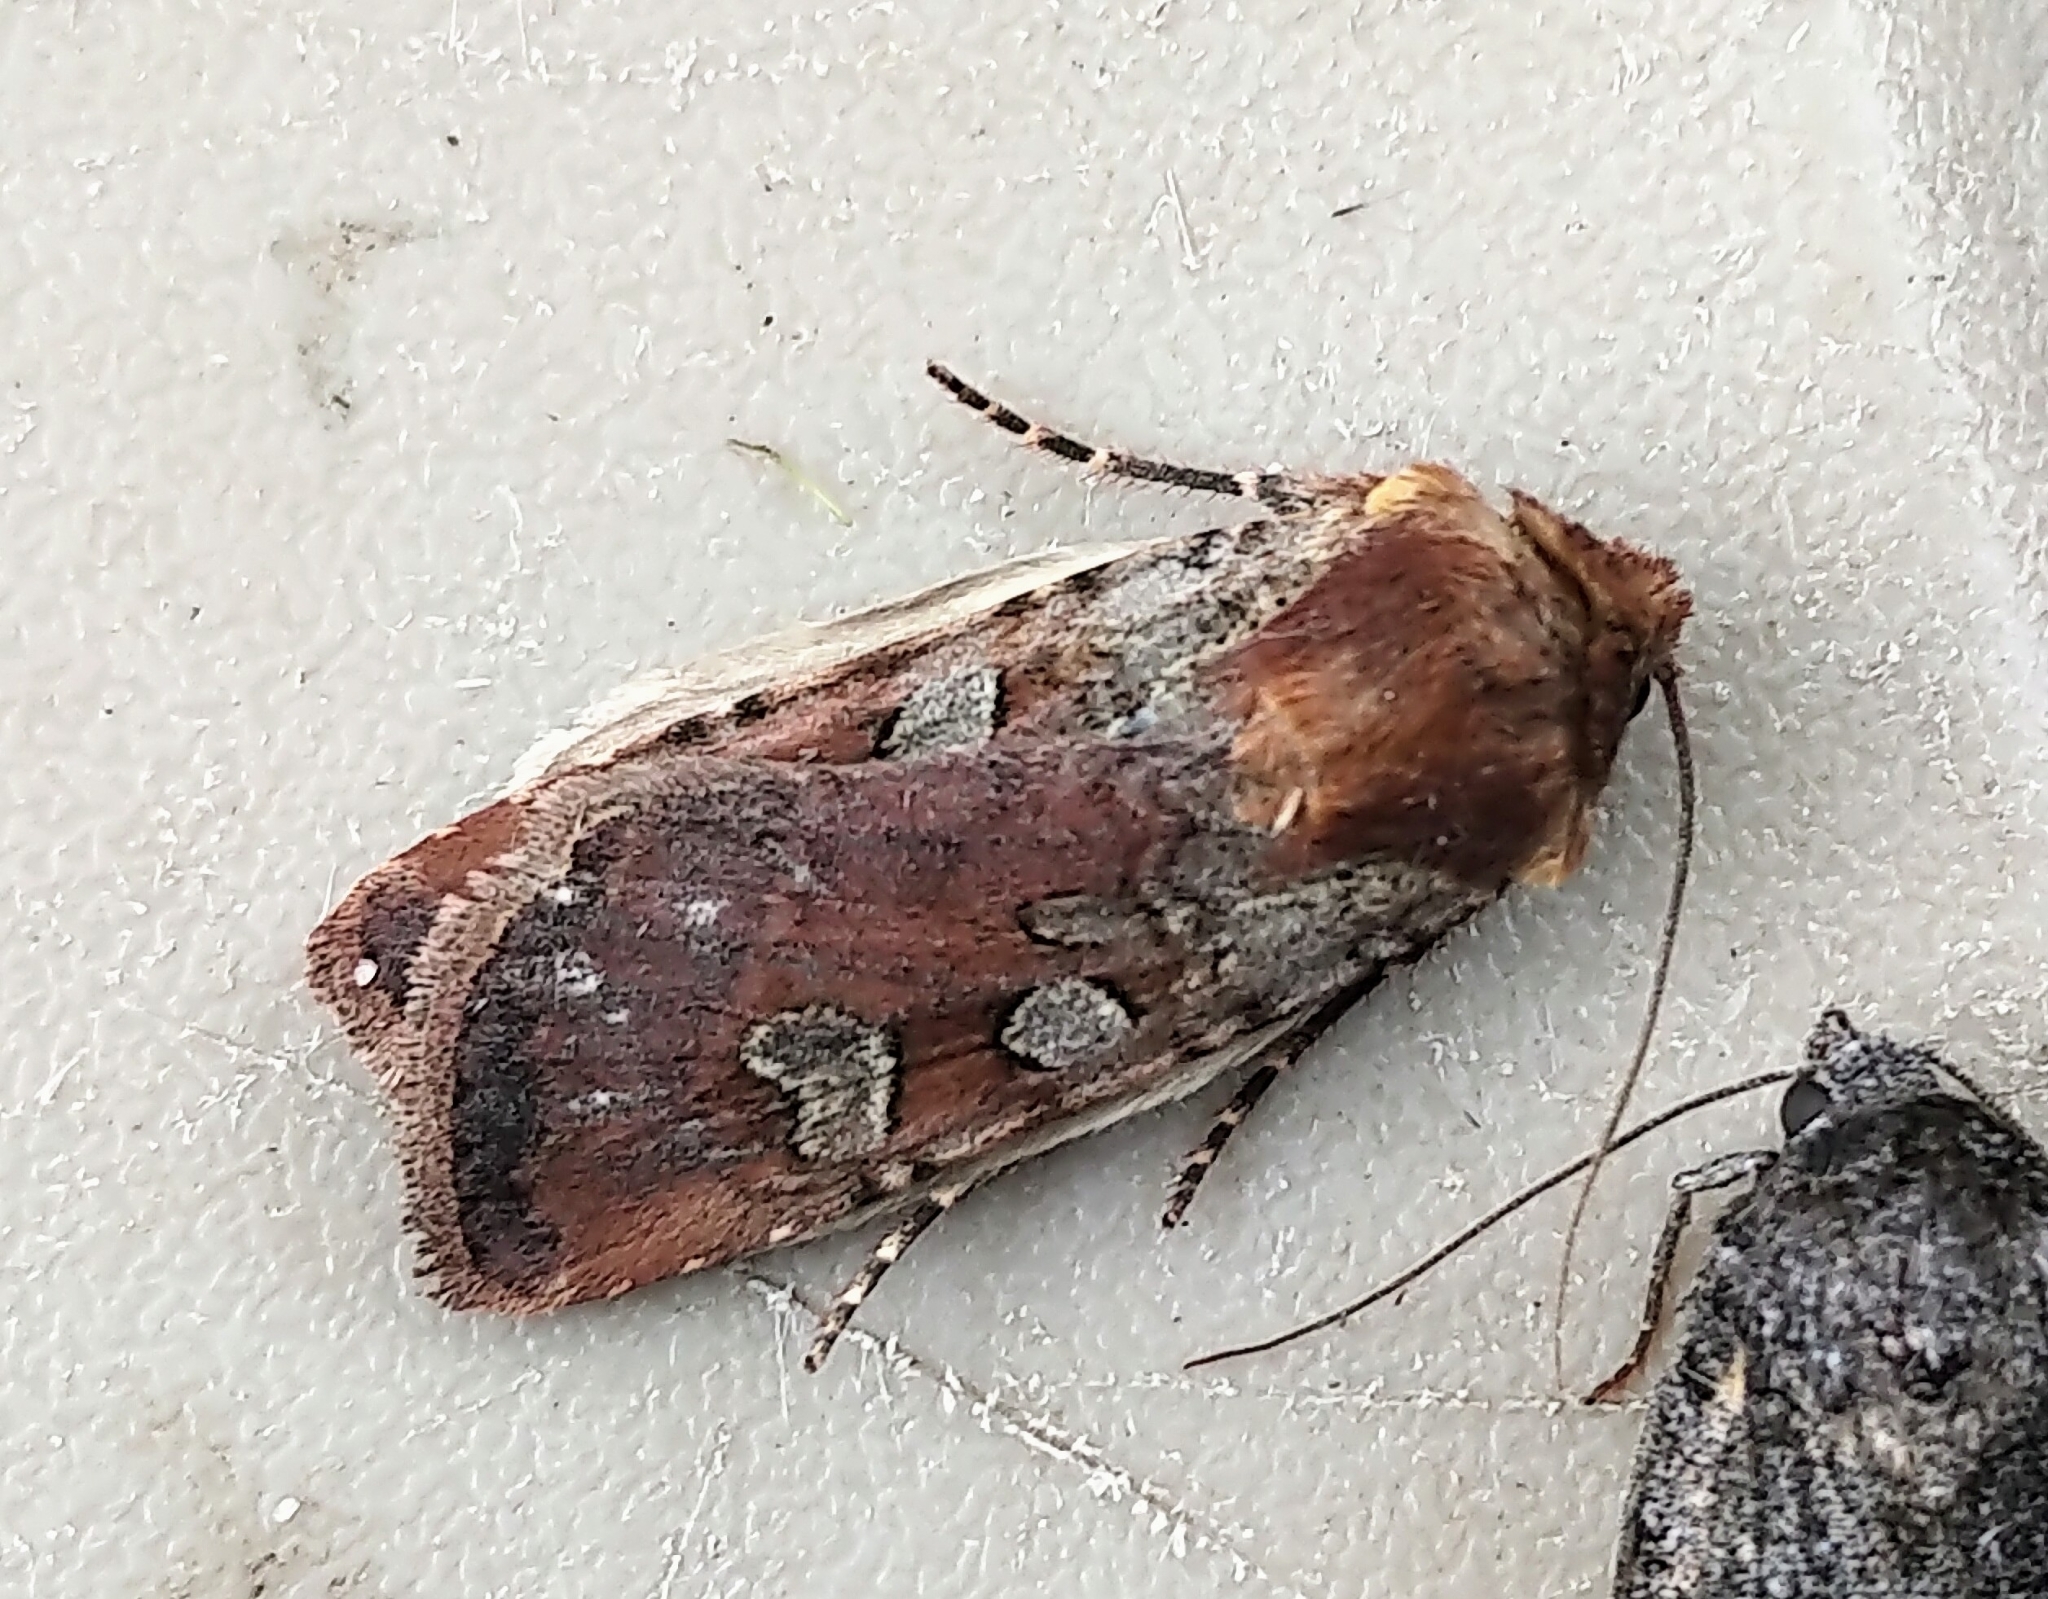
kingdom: Animalia
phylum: Arthropoda
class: Insecta
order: Lepidoptera
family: Noctuidae
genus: Euxoa
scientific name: Euxoa basalis
